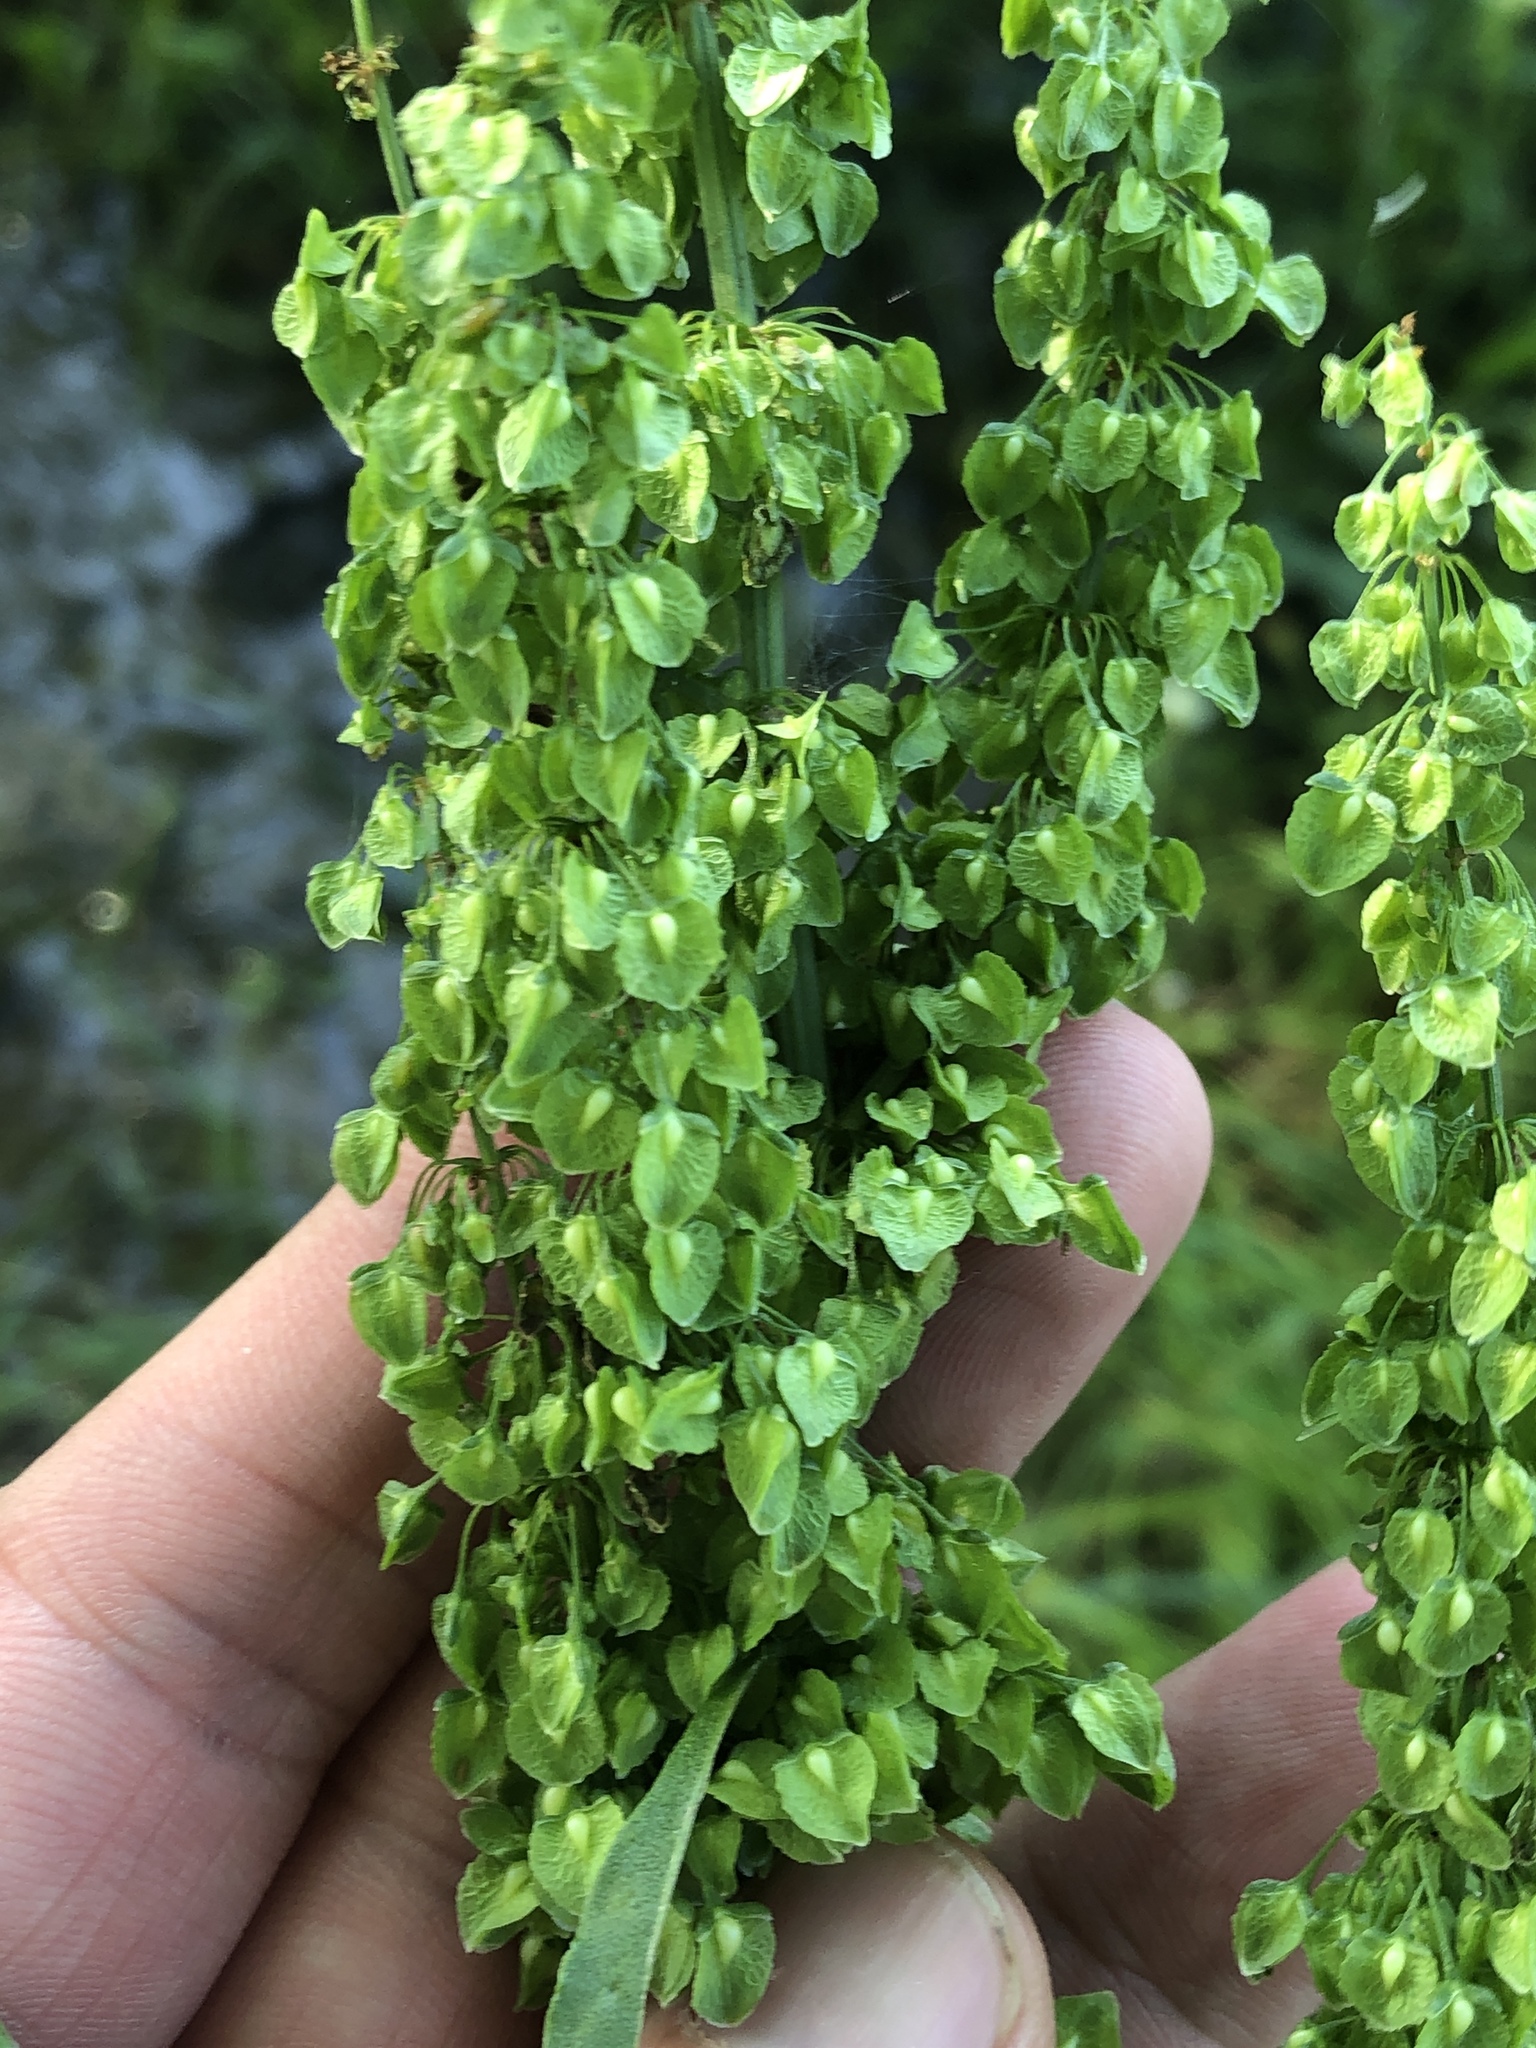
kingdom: Plantae
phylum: Tracheophyta
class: Magnoliopsida
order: Caryophyllales
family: Polygonaceae
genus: Rumex
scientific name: Rumex crispus
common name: Curled dock
